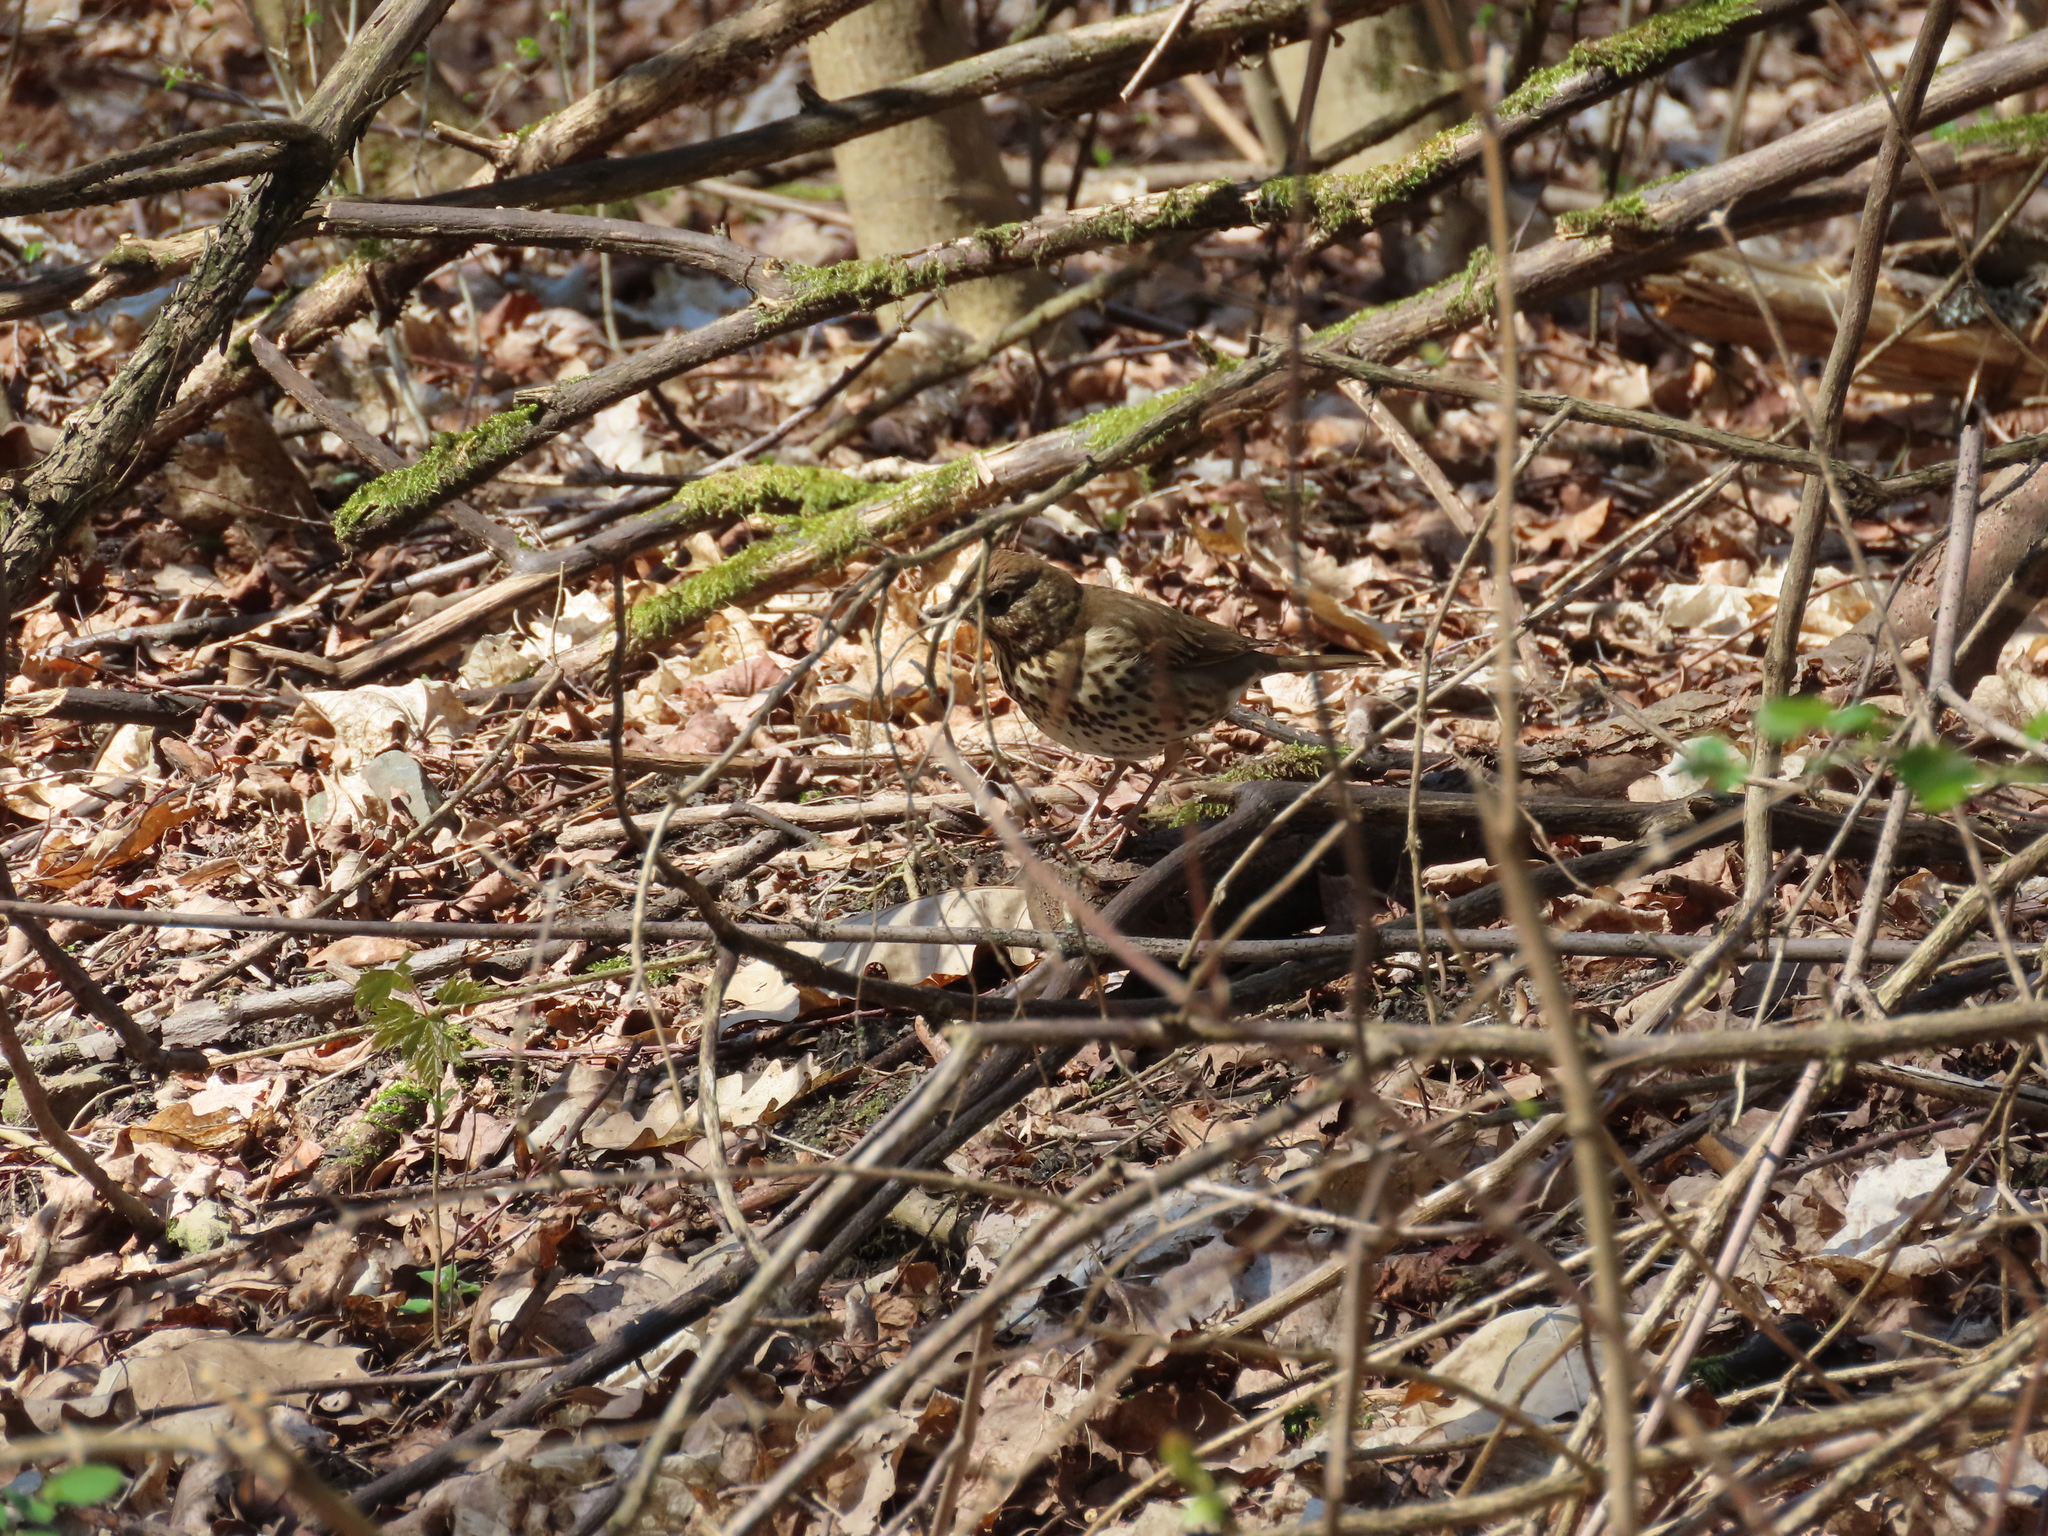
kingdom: Animalia
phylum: Chordata
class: Aves
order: Passeriformes
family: Turdidae
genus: Turdus
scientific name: Turdus philomelos
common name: Song thrush
